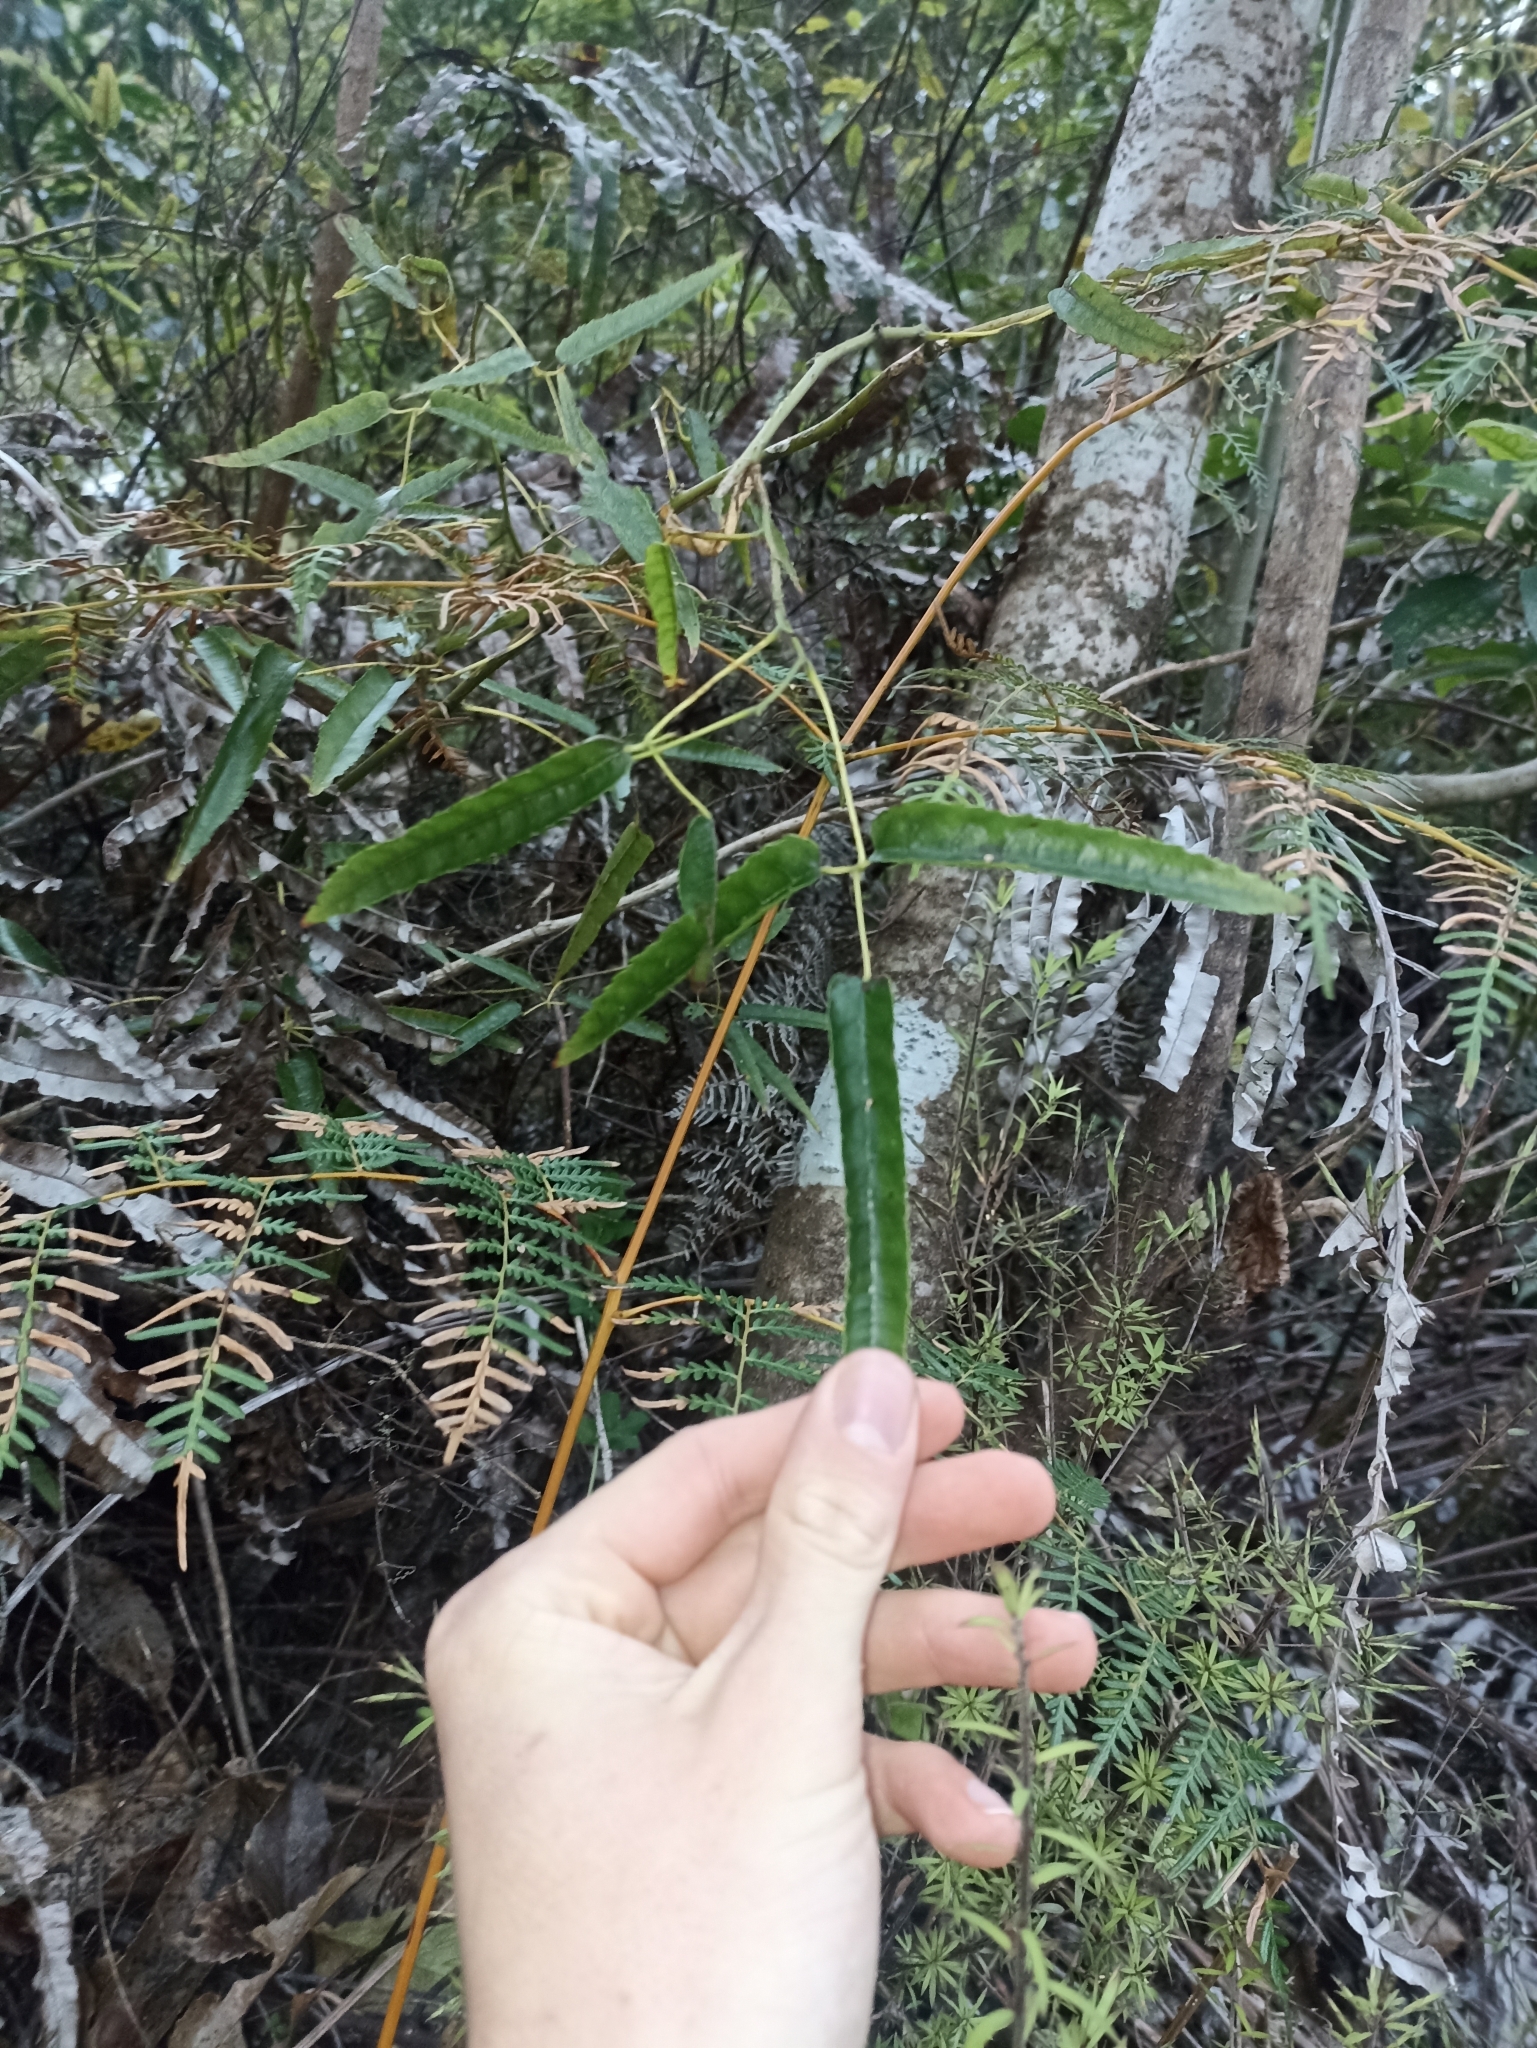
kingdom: Plantae
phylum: Tracheophyta
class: Magnoliopsida
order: Rosales
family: Rosaceae
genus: Rubus
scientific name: Rubus cissoides
